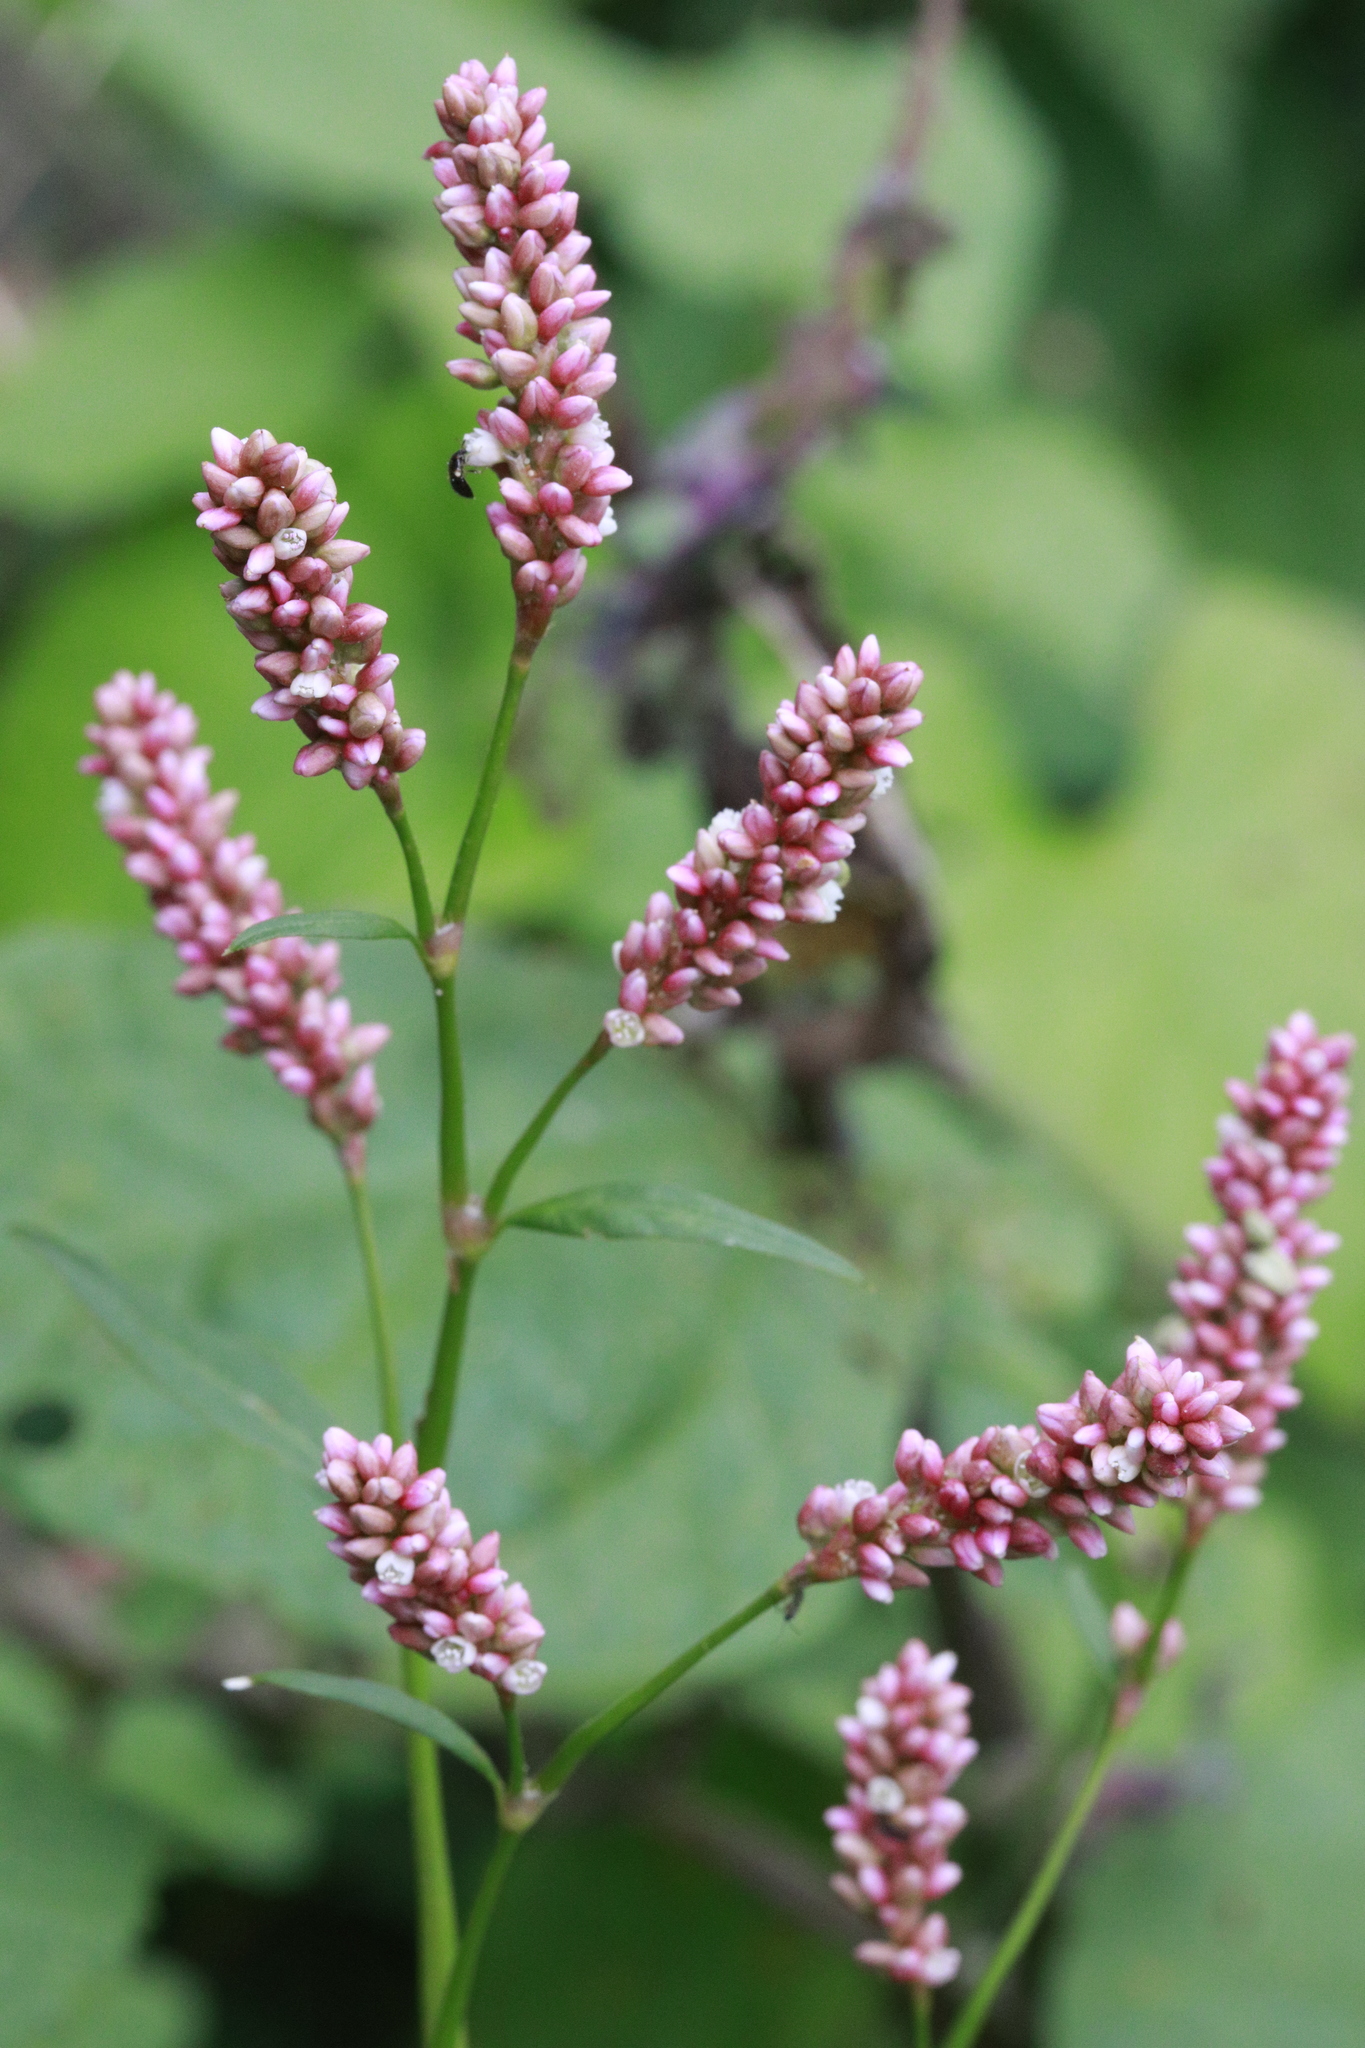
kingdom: Plantae
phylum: Tracheophyta
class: Magnoliopsida
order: Caryophyllales
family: Polygonaceae
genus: Persicaria
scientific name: Persicaria maculosa
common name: Redshank
